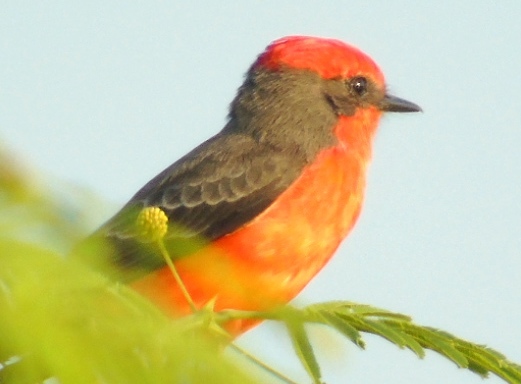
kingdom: Animalia
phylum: Chordata
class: Aves
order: Passeriformes
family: Tyrannidae
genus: Pyrocephalus
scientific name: Pyrocephalus rubinus
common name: Vermilion flycatcher
